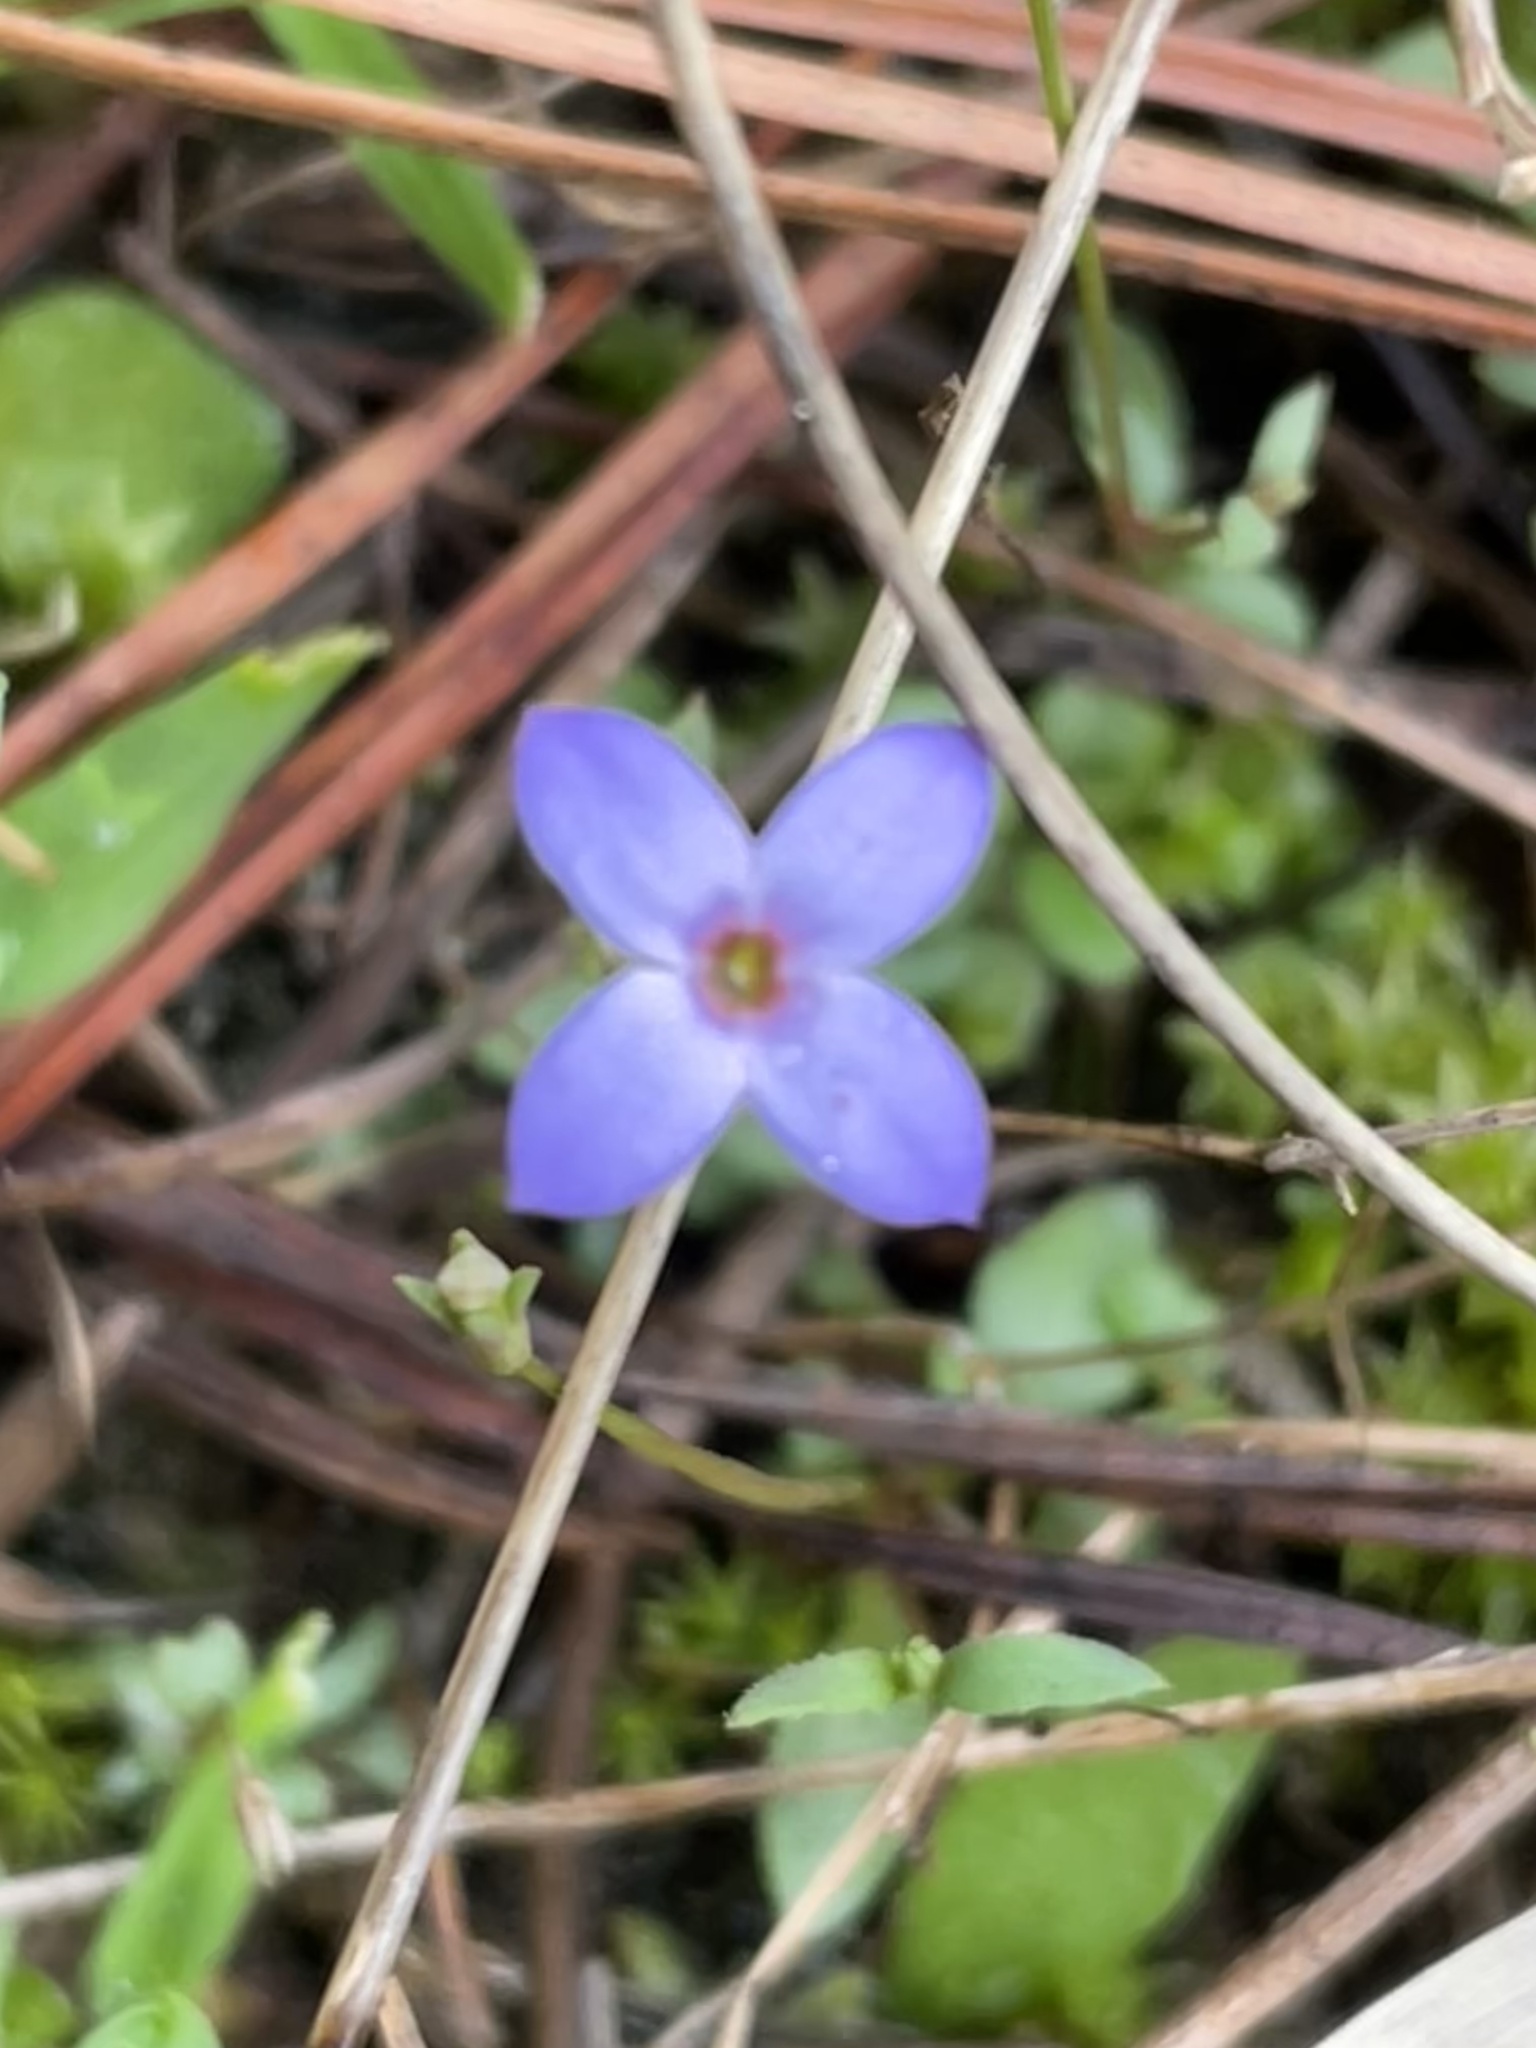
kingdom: Plantae
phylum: Tracheophyta
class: Magnoliopsida
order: Gentianales
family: Rubiaceae
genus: Houstonia
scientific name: Houstonia pusilla
